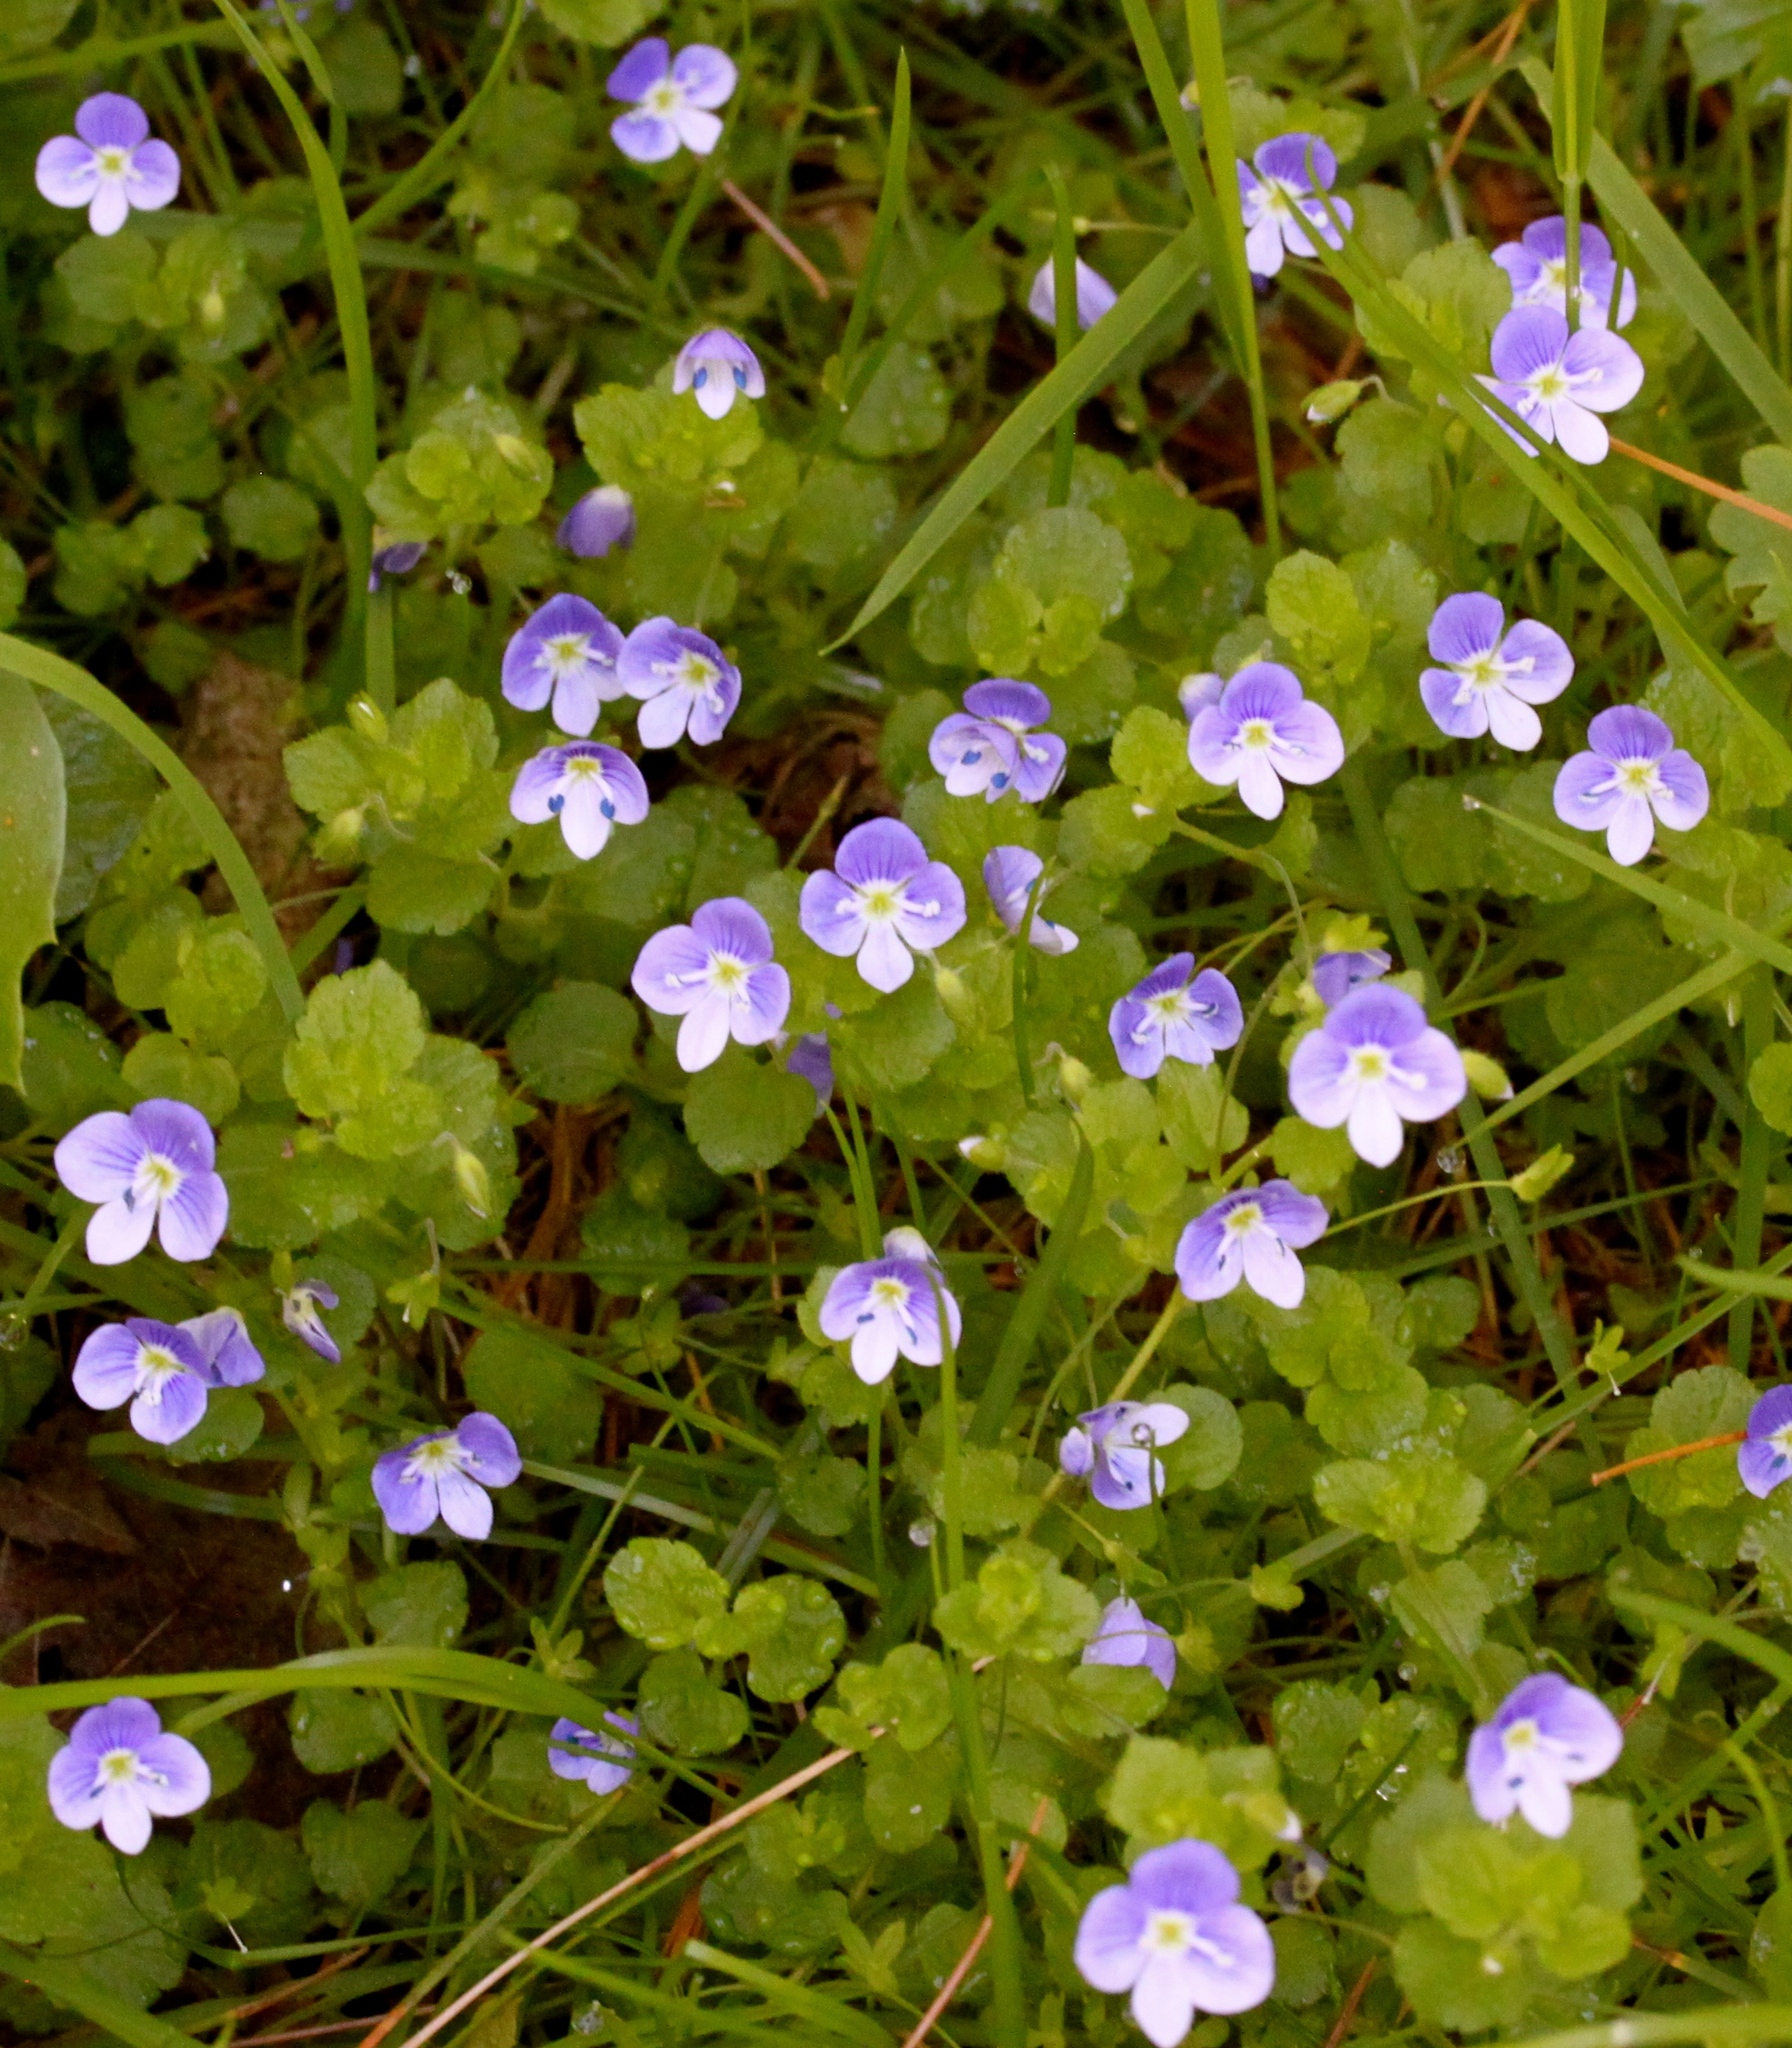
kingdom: Plantae
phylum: Tracheophyta
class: Magnoliopsida
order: Lamiales
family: Plantaginaceae
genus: Veronica
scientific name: Veronica filiformis
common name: Slender speedwell
